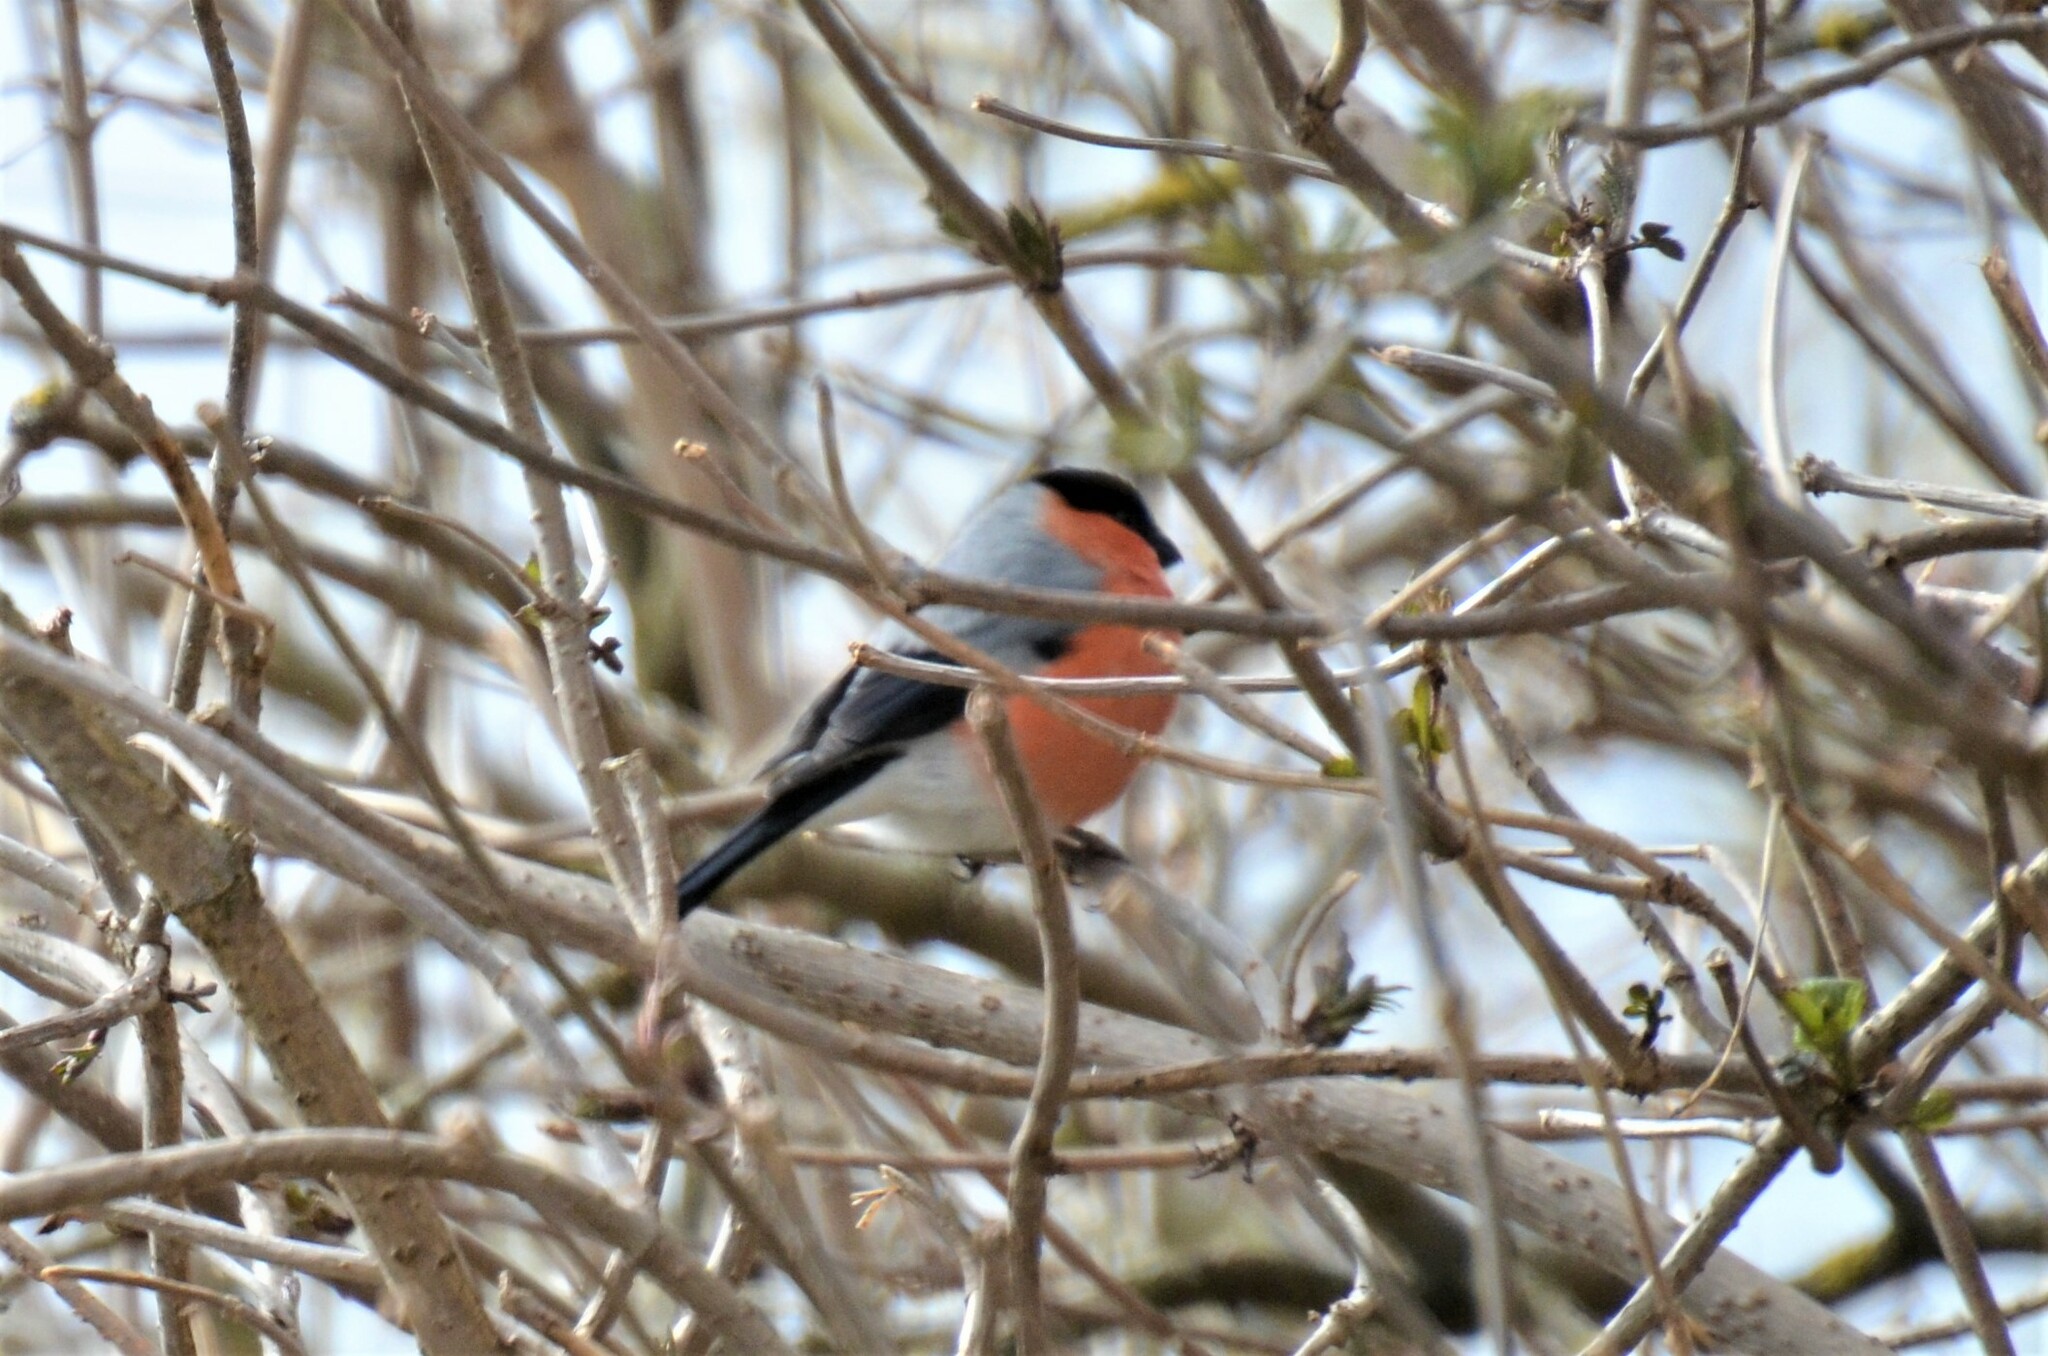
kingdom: Animalia
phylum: Chordata
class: Aves
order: Passeriformes
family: Fringillidae
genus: Pyrrhula
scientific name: Pyrrhula pyrrhula
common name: Eurasian bullfinch
